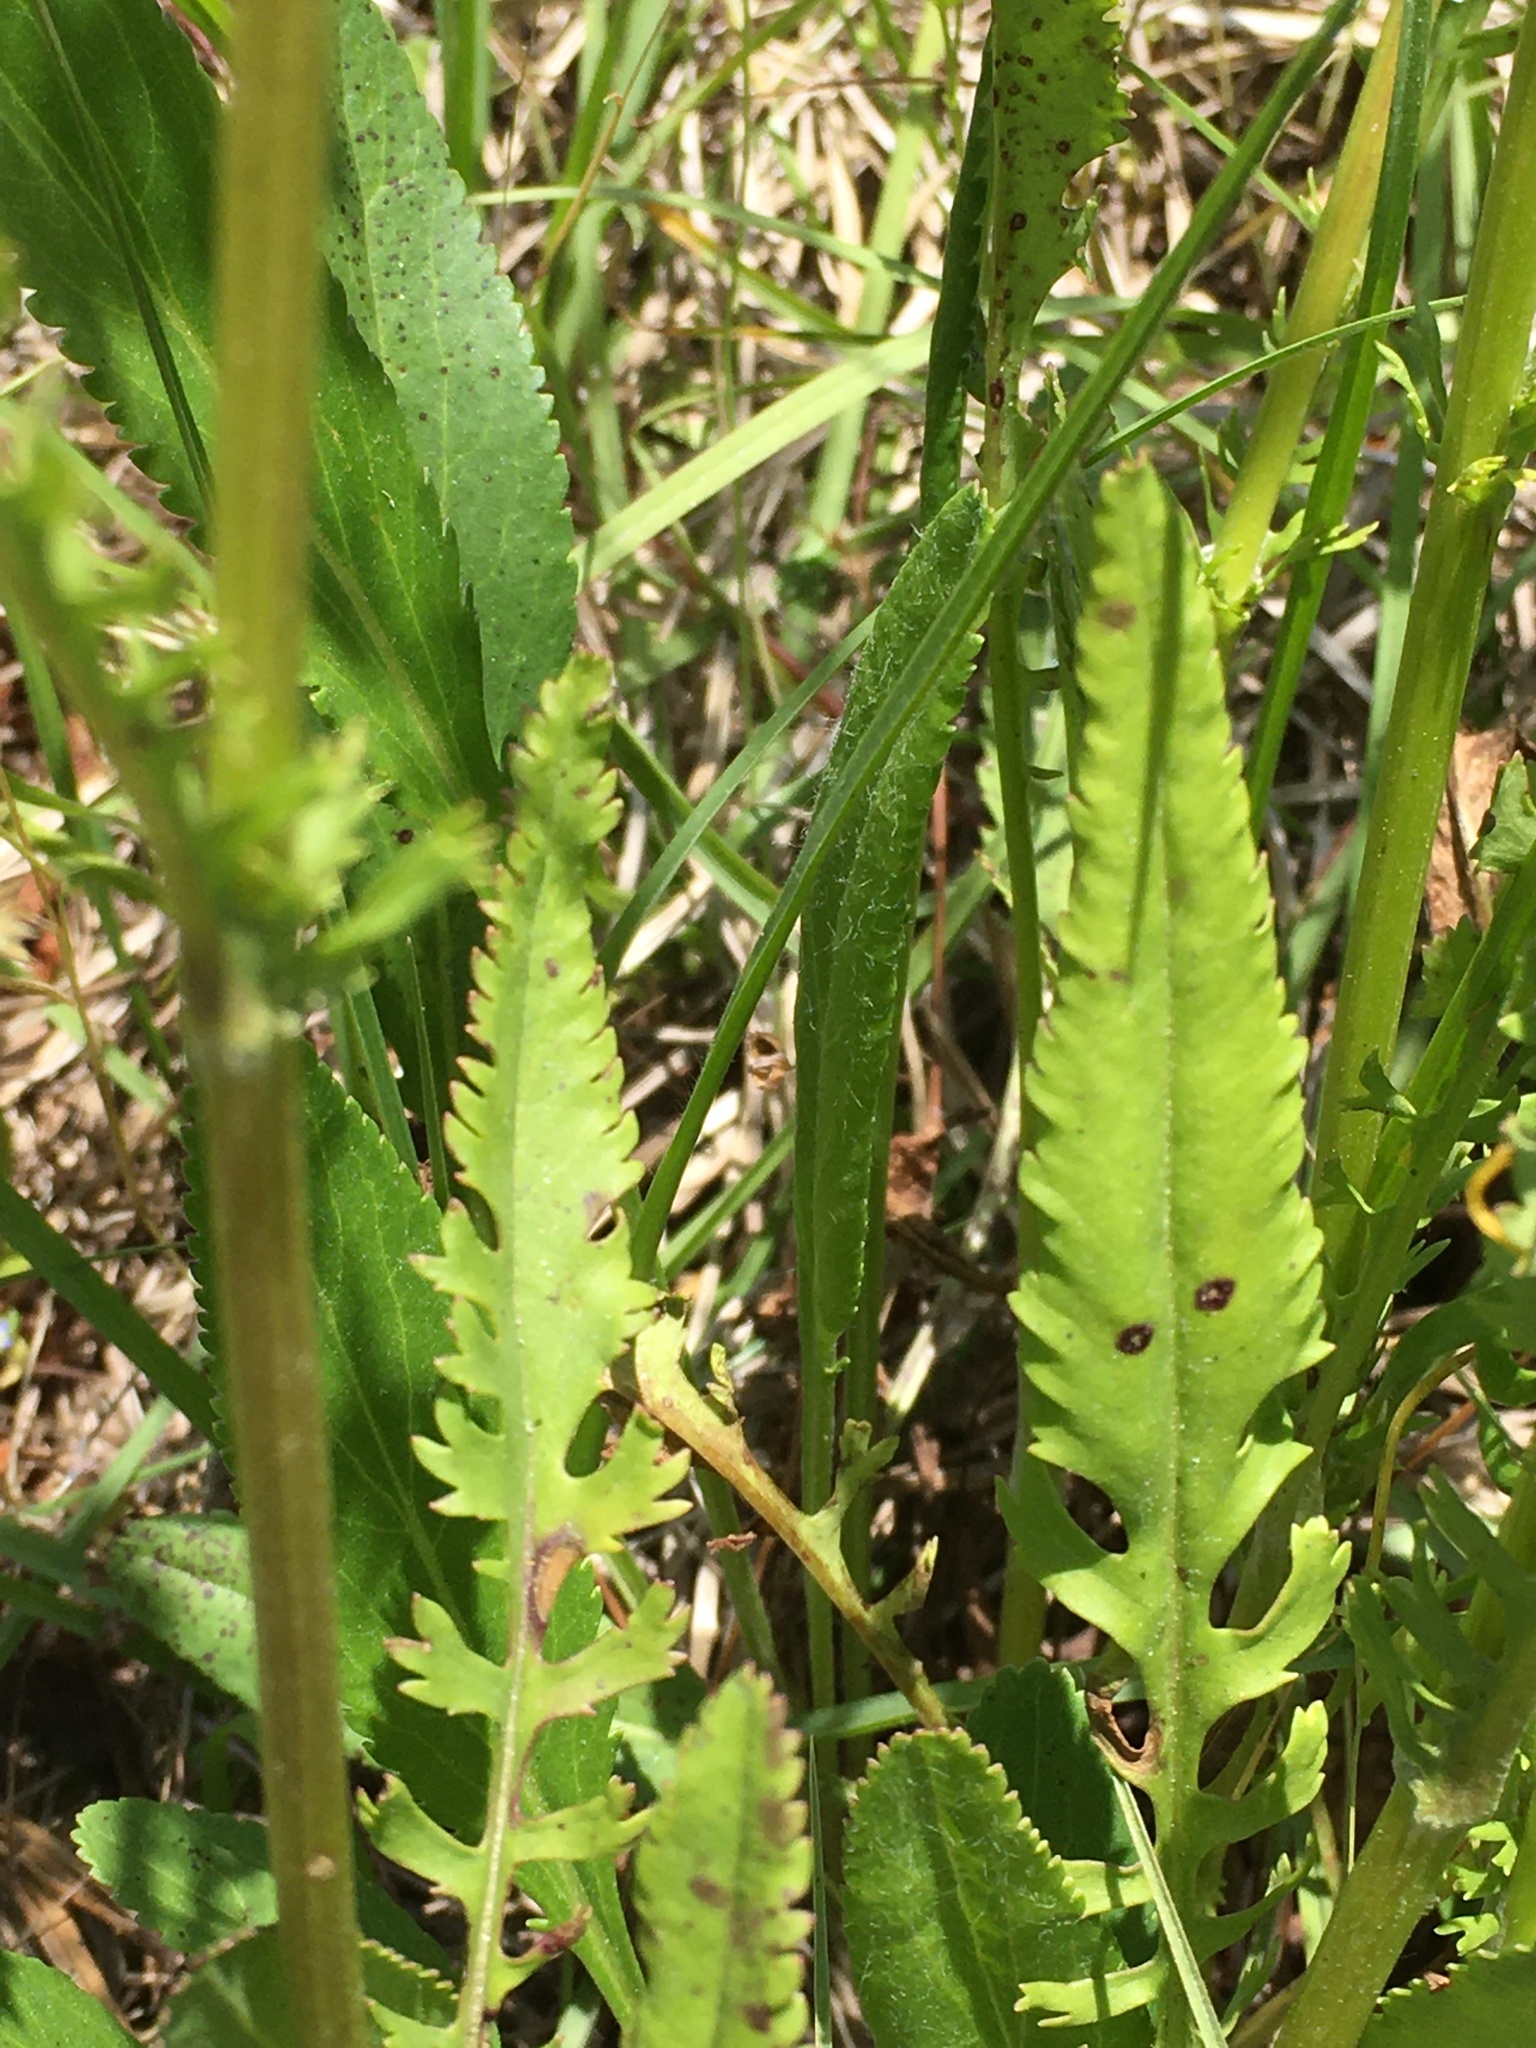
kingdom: Plantae
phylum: Tracheophyta
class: Magnoliopsida
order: Asterales
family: Asteraceae
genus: Packera
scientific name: Packera anonyma
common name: Small ragwort
